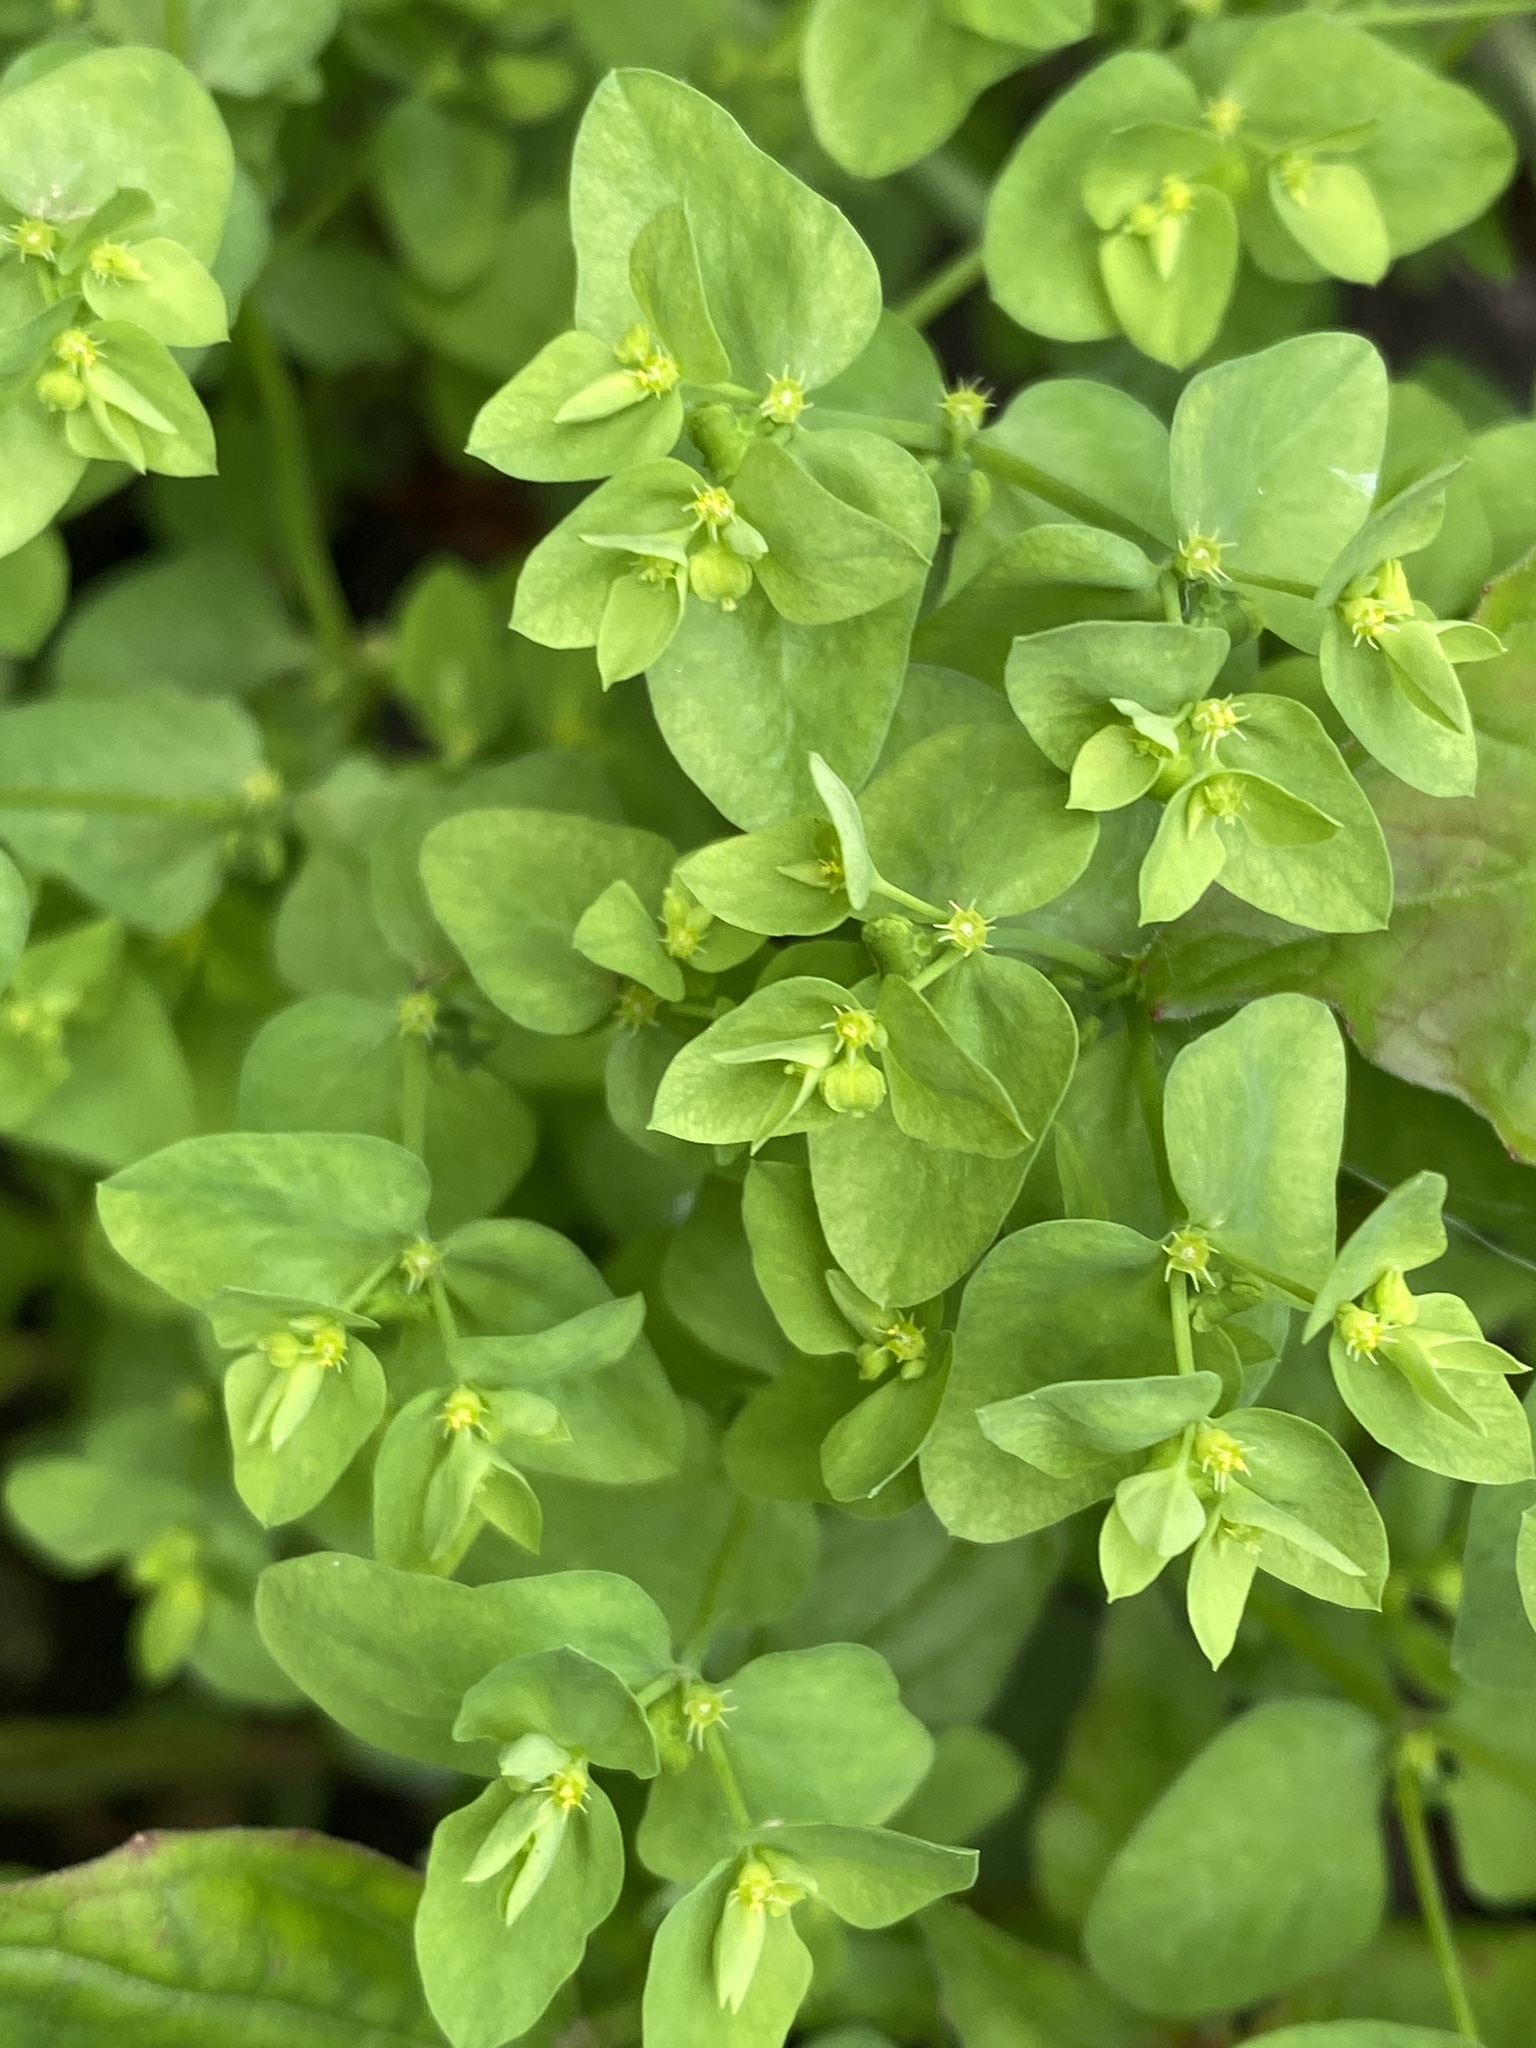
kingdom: Plantae
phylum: Tracheophyta
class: Magnoliopsida
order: Malpighiales
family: Euphorbiaceae
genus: Euphorbia
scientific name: Euphorbia peplus
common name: Petty spurge
